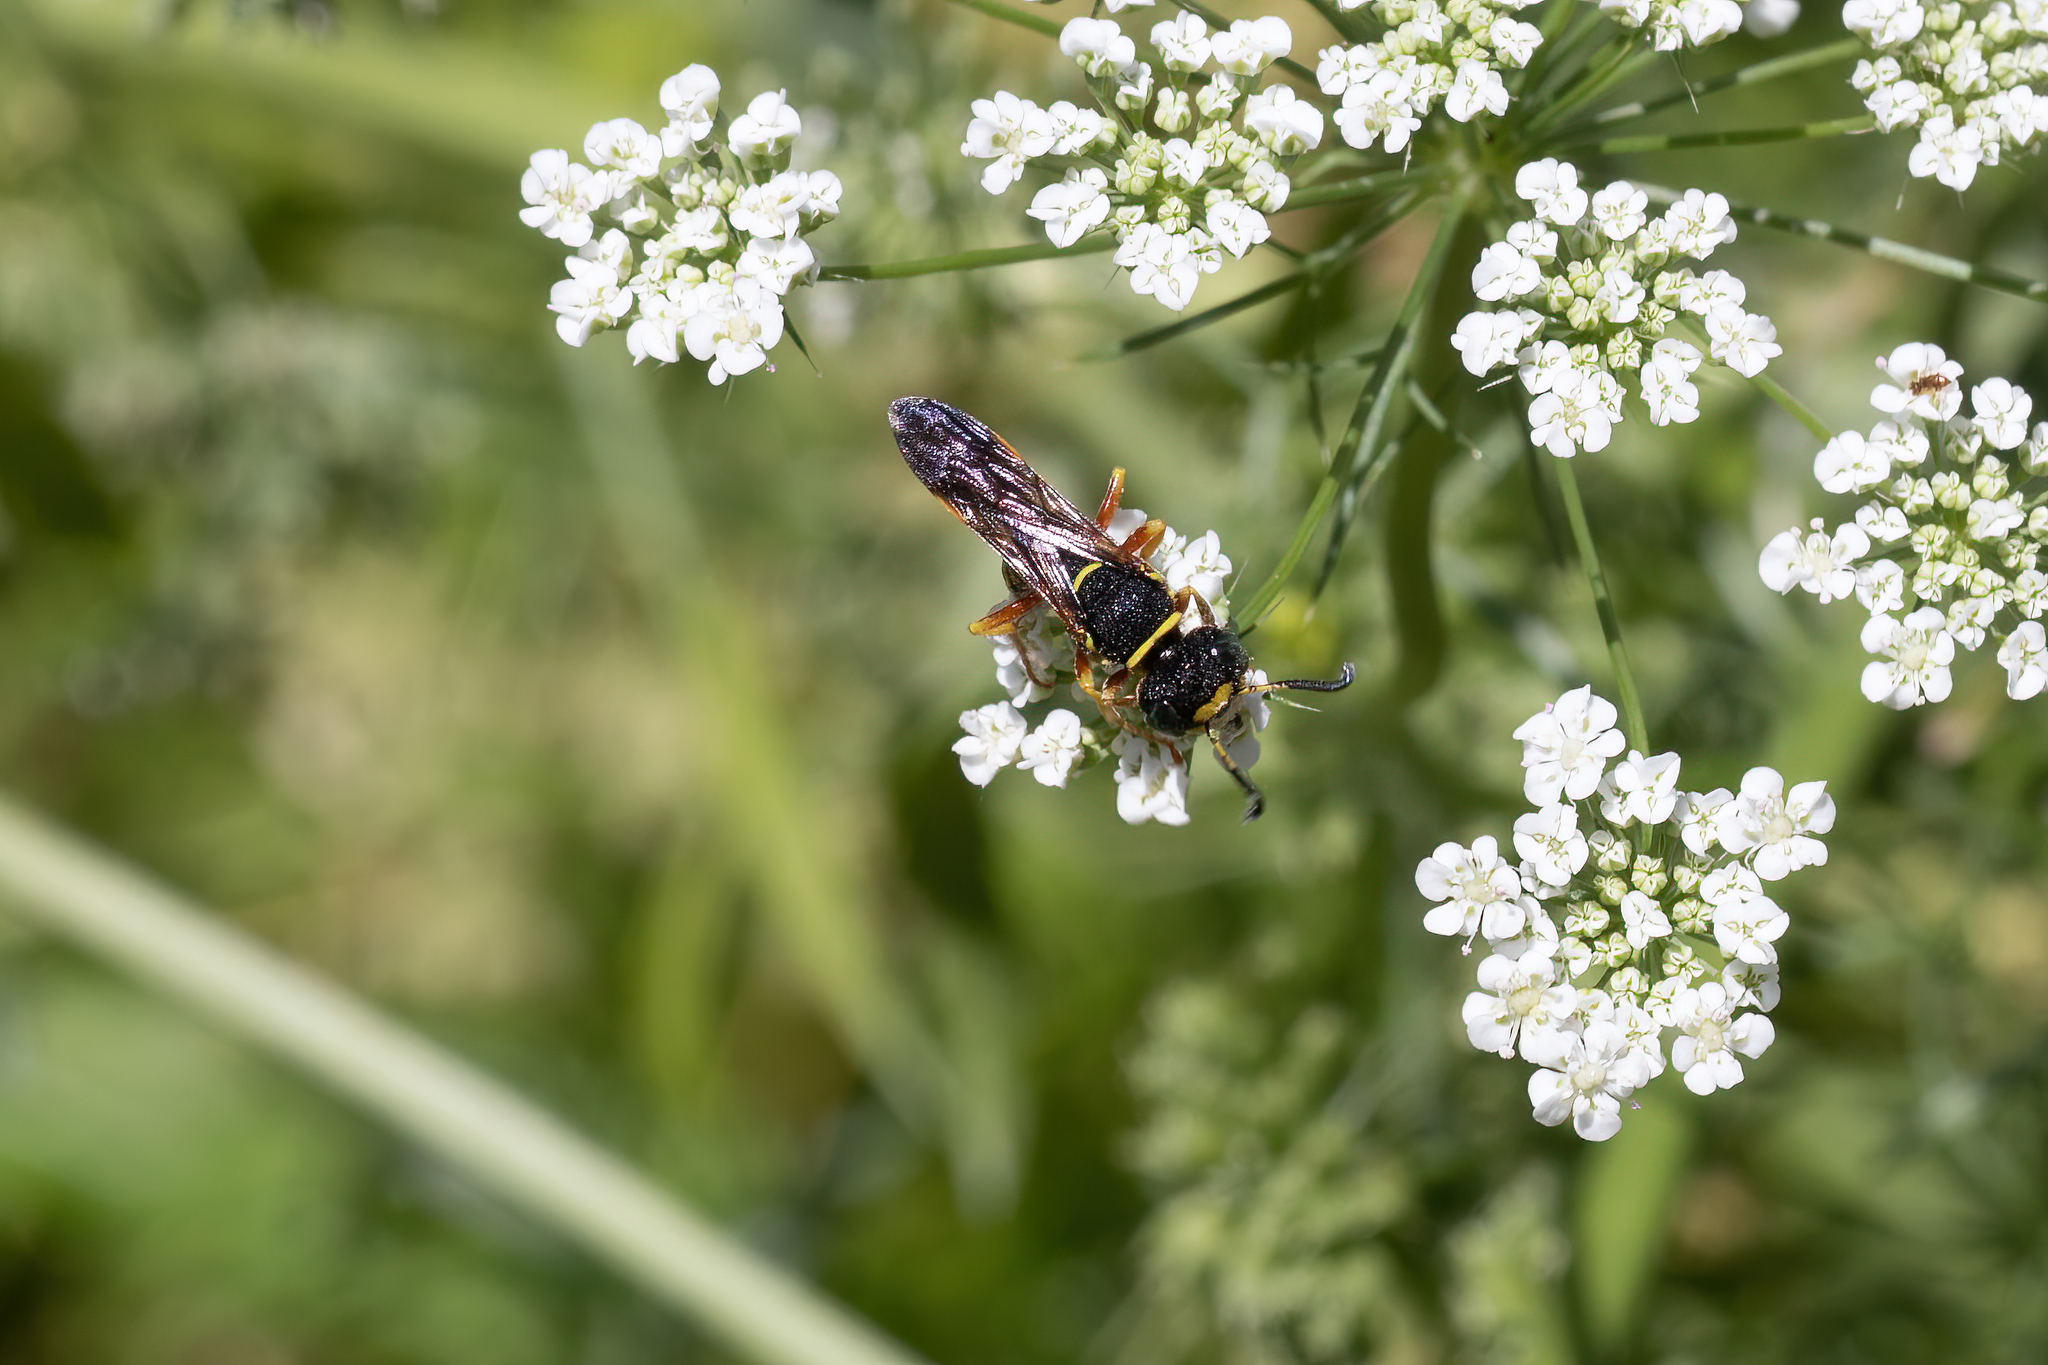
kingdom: Animalia
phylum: Arthropoda
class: Insecta
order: Hymenoptera
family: Crabronidae
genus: Philanthus
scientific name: Philanthus ventilabris
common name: Bee-killer wasp
